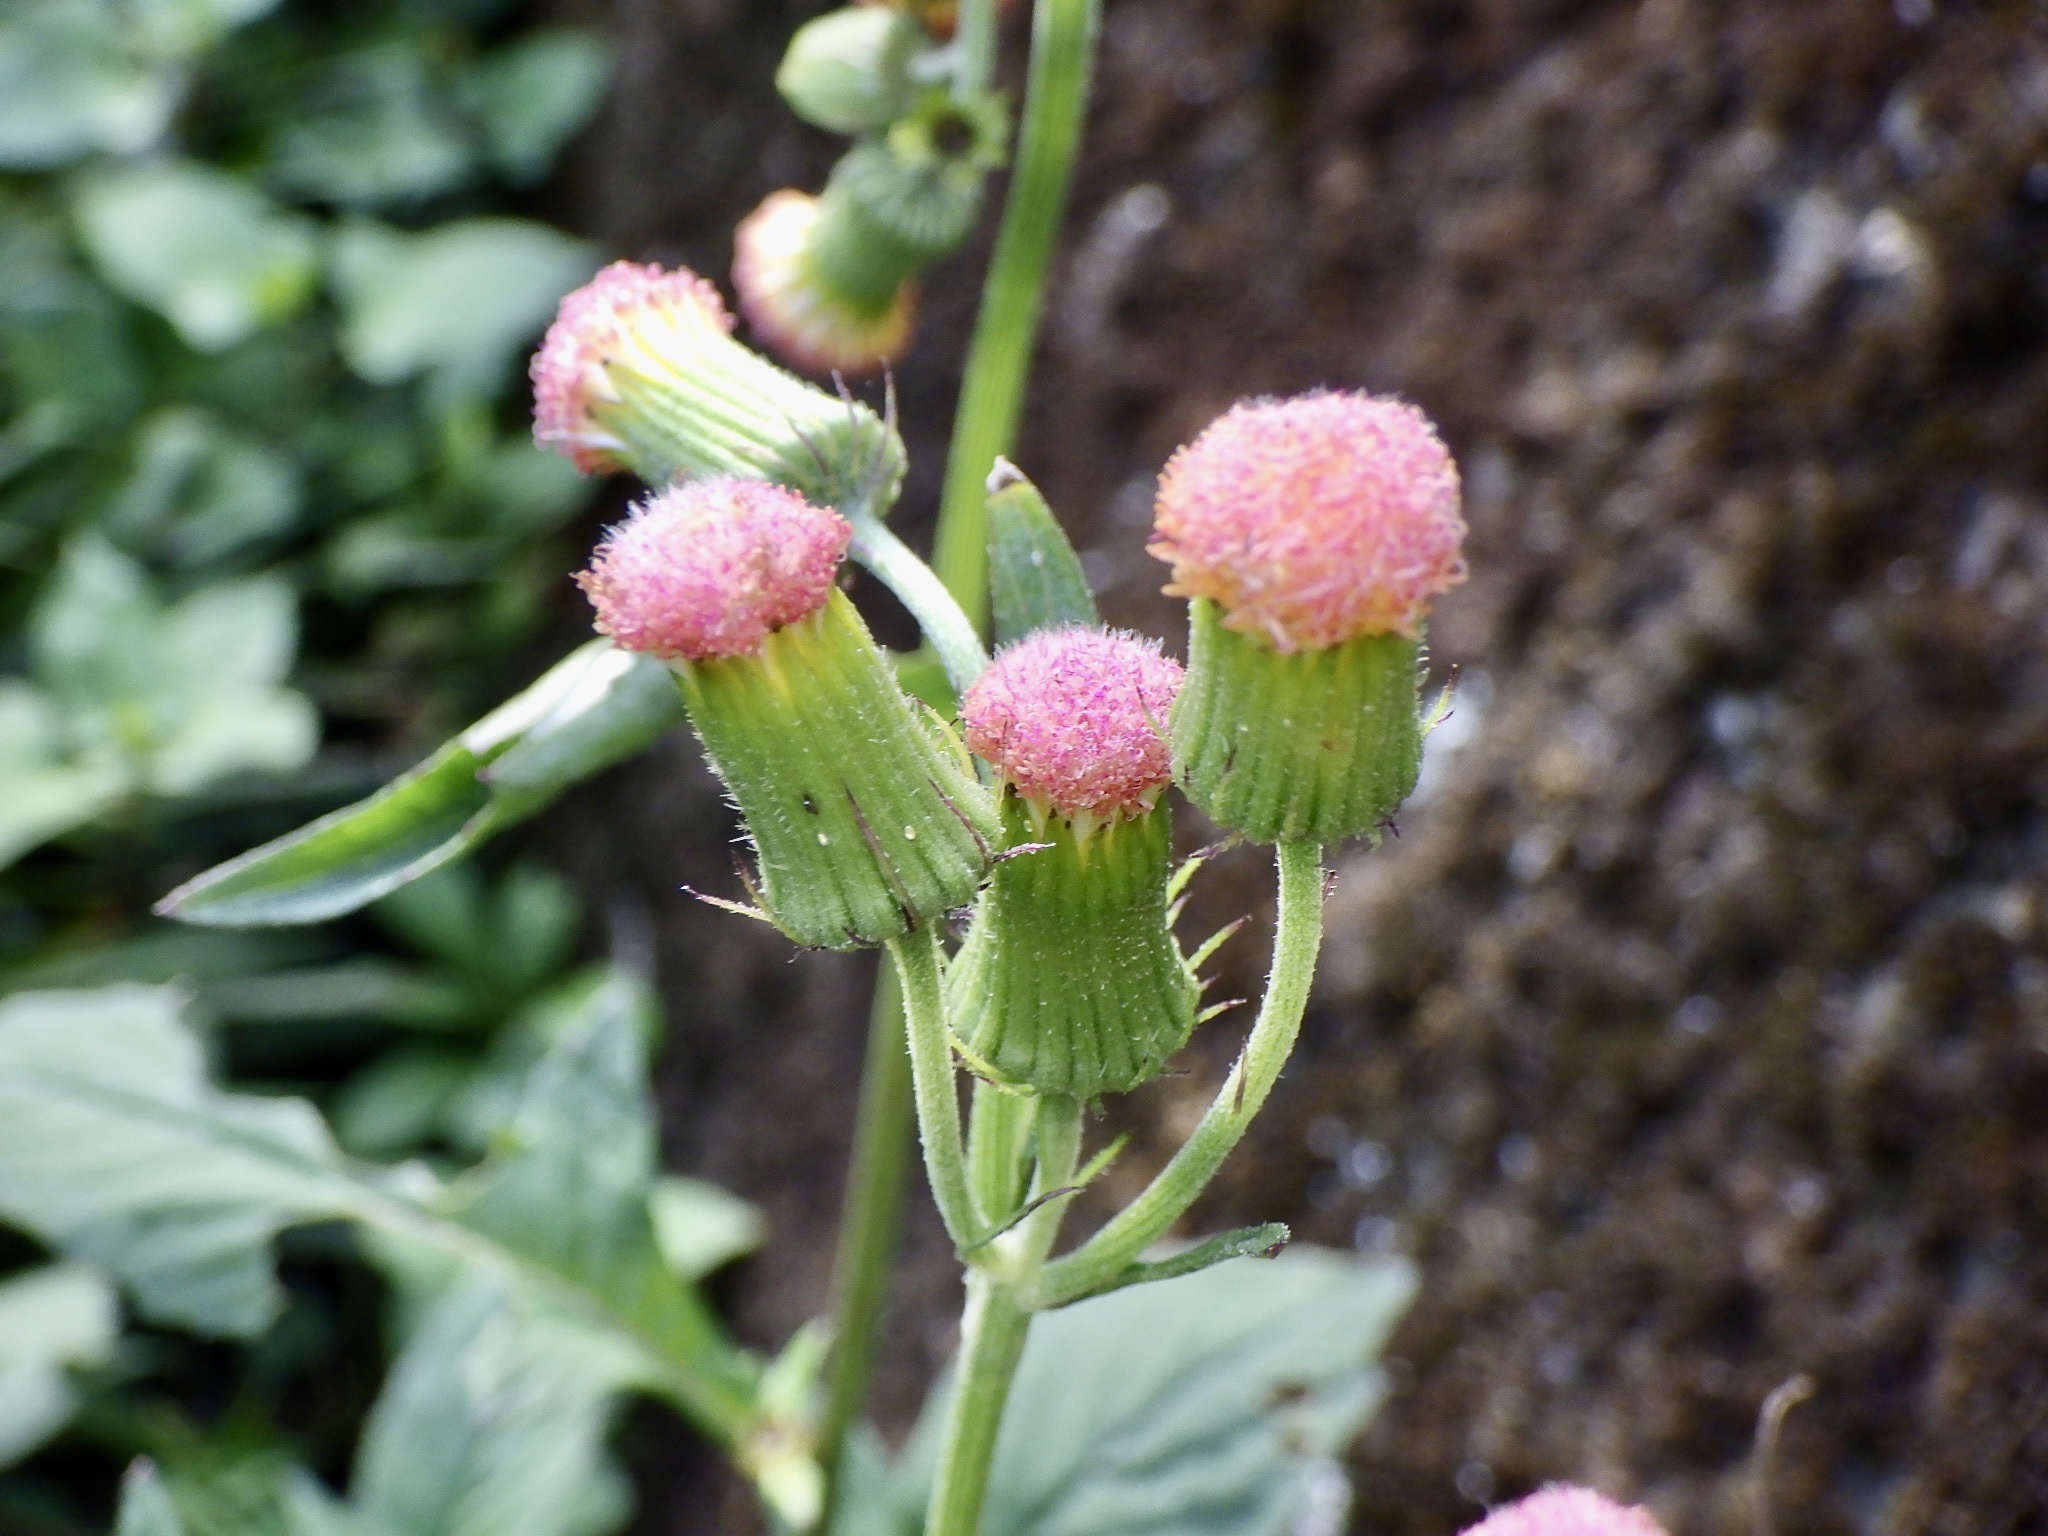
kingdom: Plantae
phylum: Tracheophyta
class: Magnoliopsida
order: Asterales
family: Asteraceae
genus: Crassocephalum
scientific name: Crassocephalum crepidioides
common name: Redflower ragleaf
